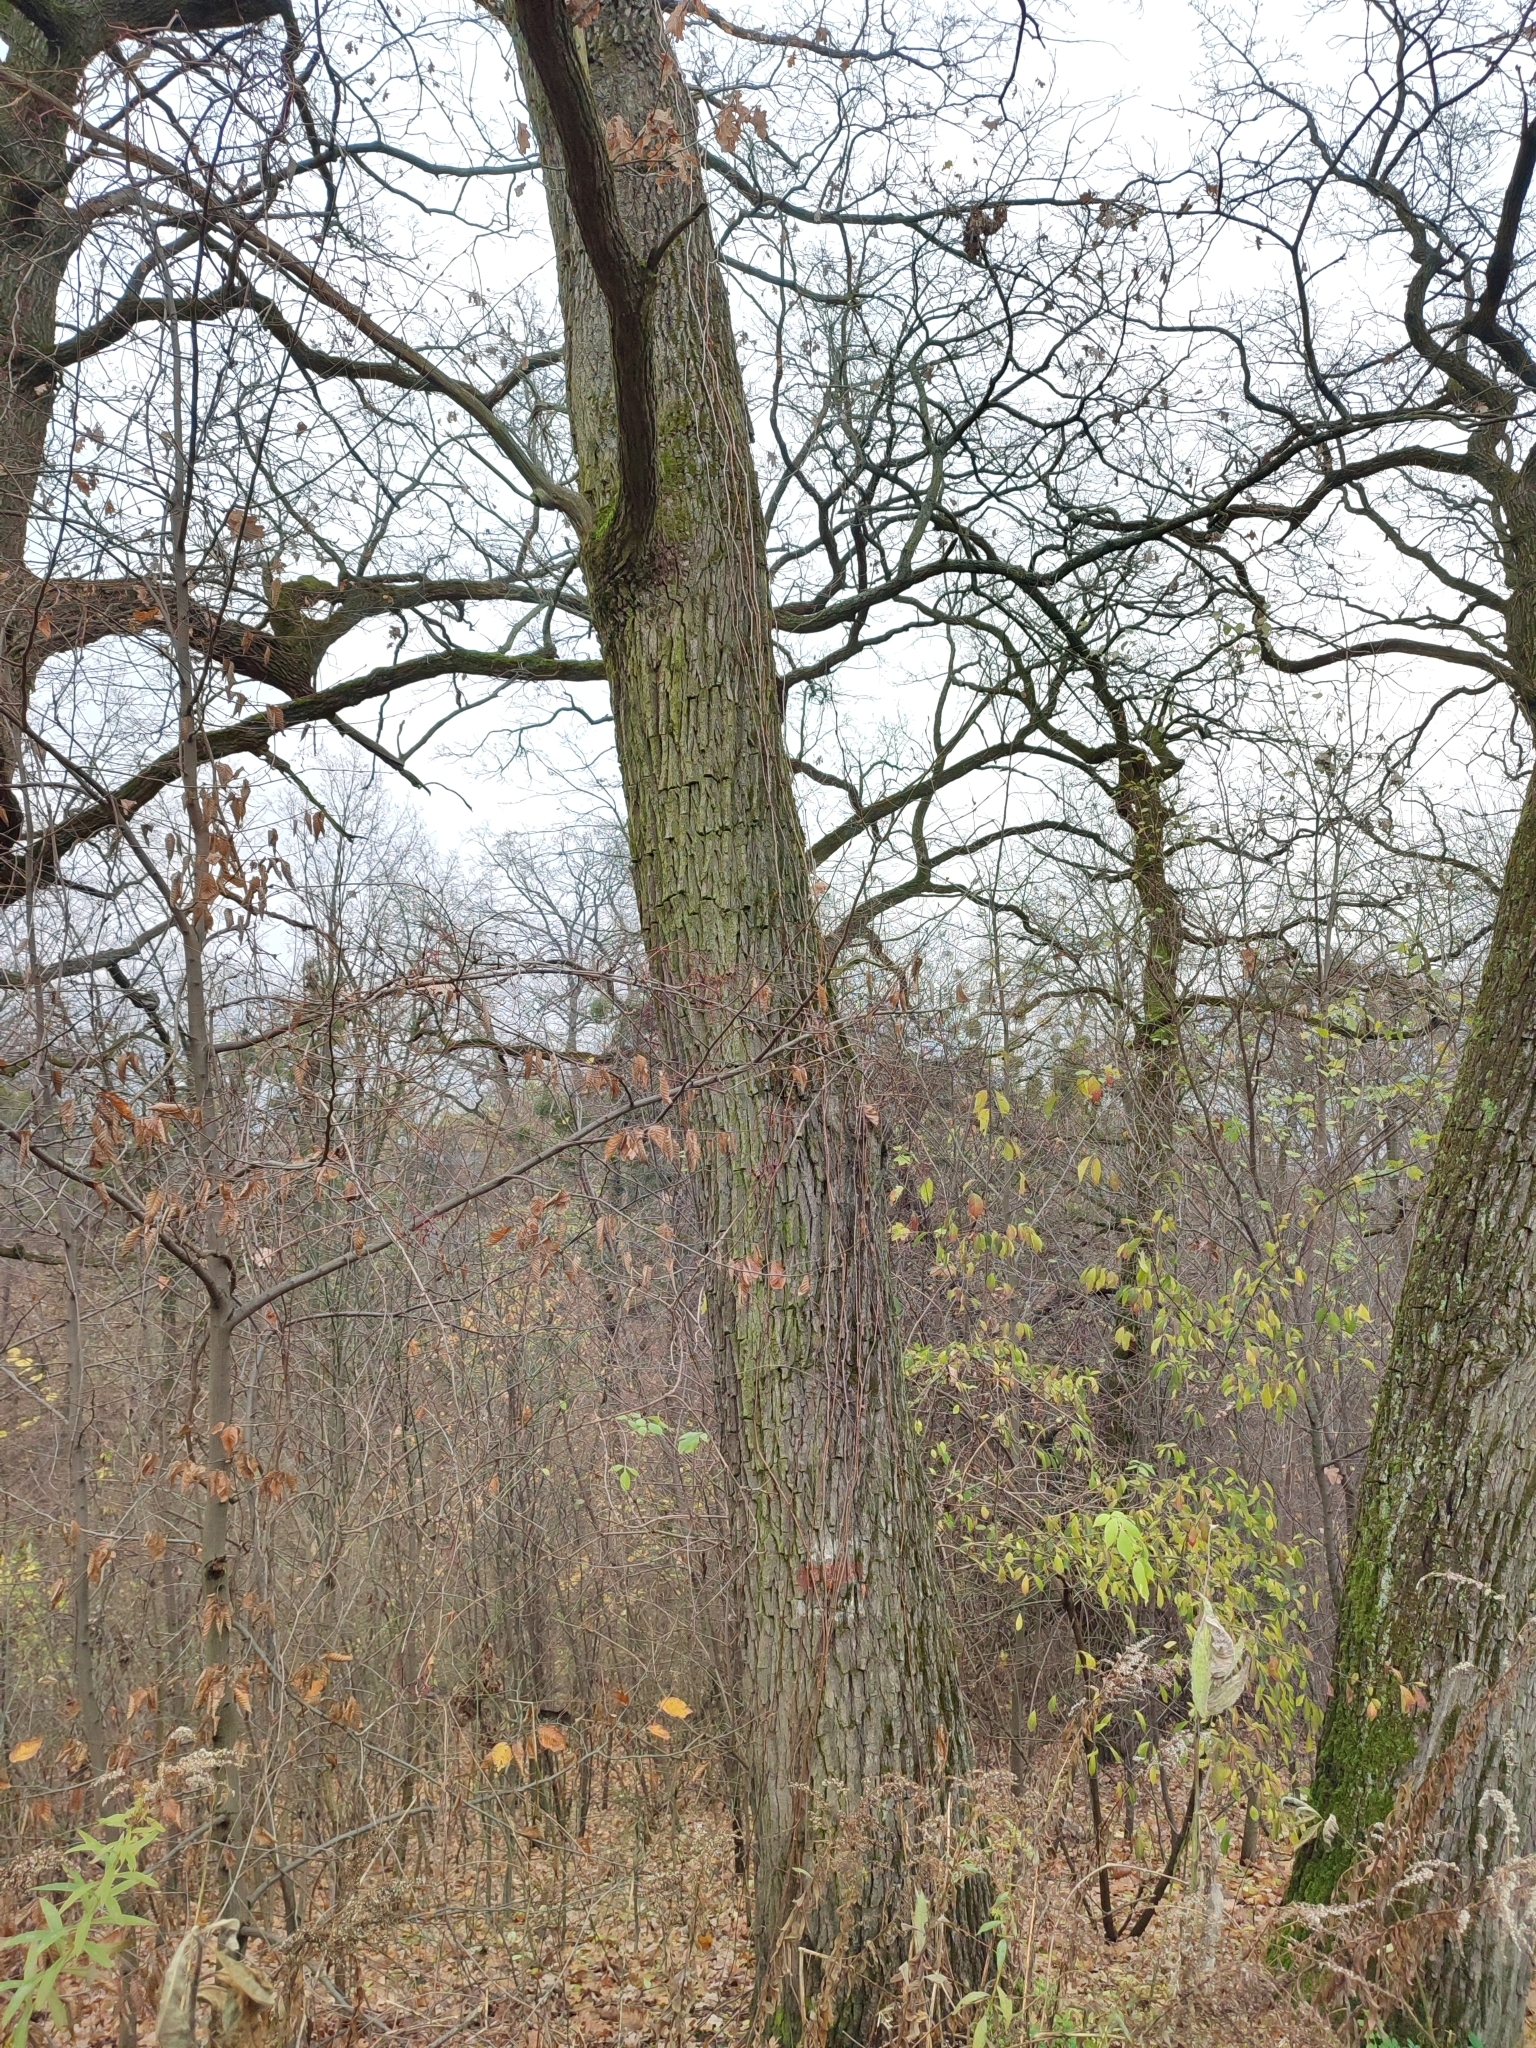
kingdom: Plantae
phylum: Tracheophyta
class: Magnoliopsida
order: Fagales
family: Fagaceae
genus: Quercus
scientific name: Quercus robur
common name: Pedunculate oak
